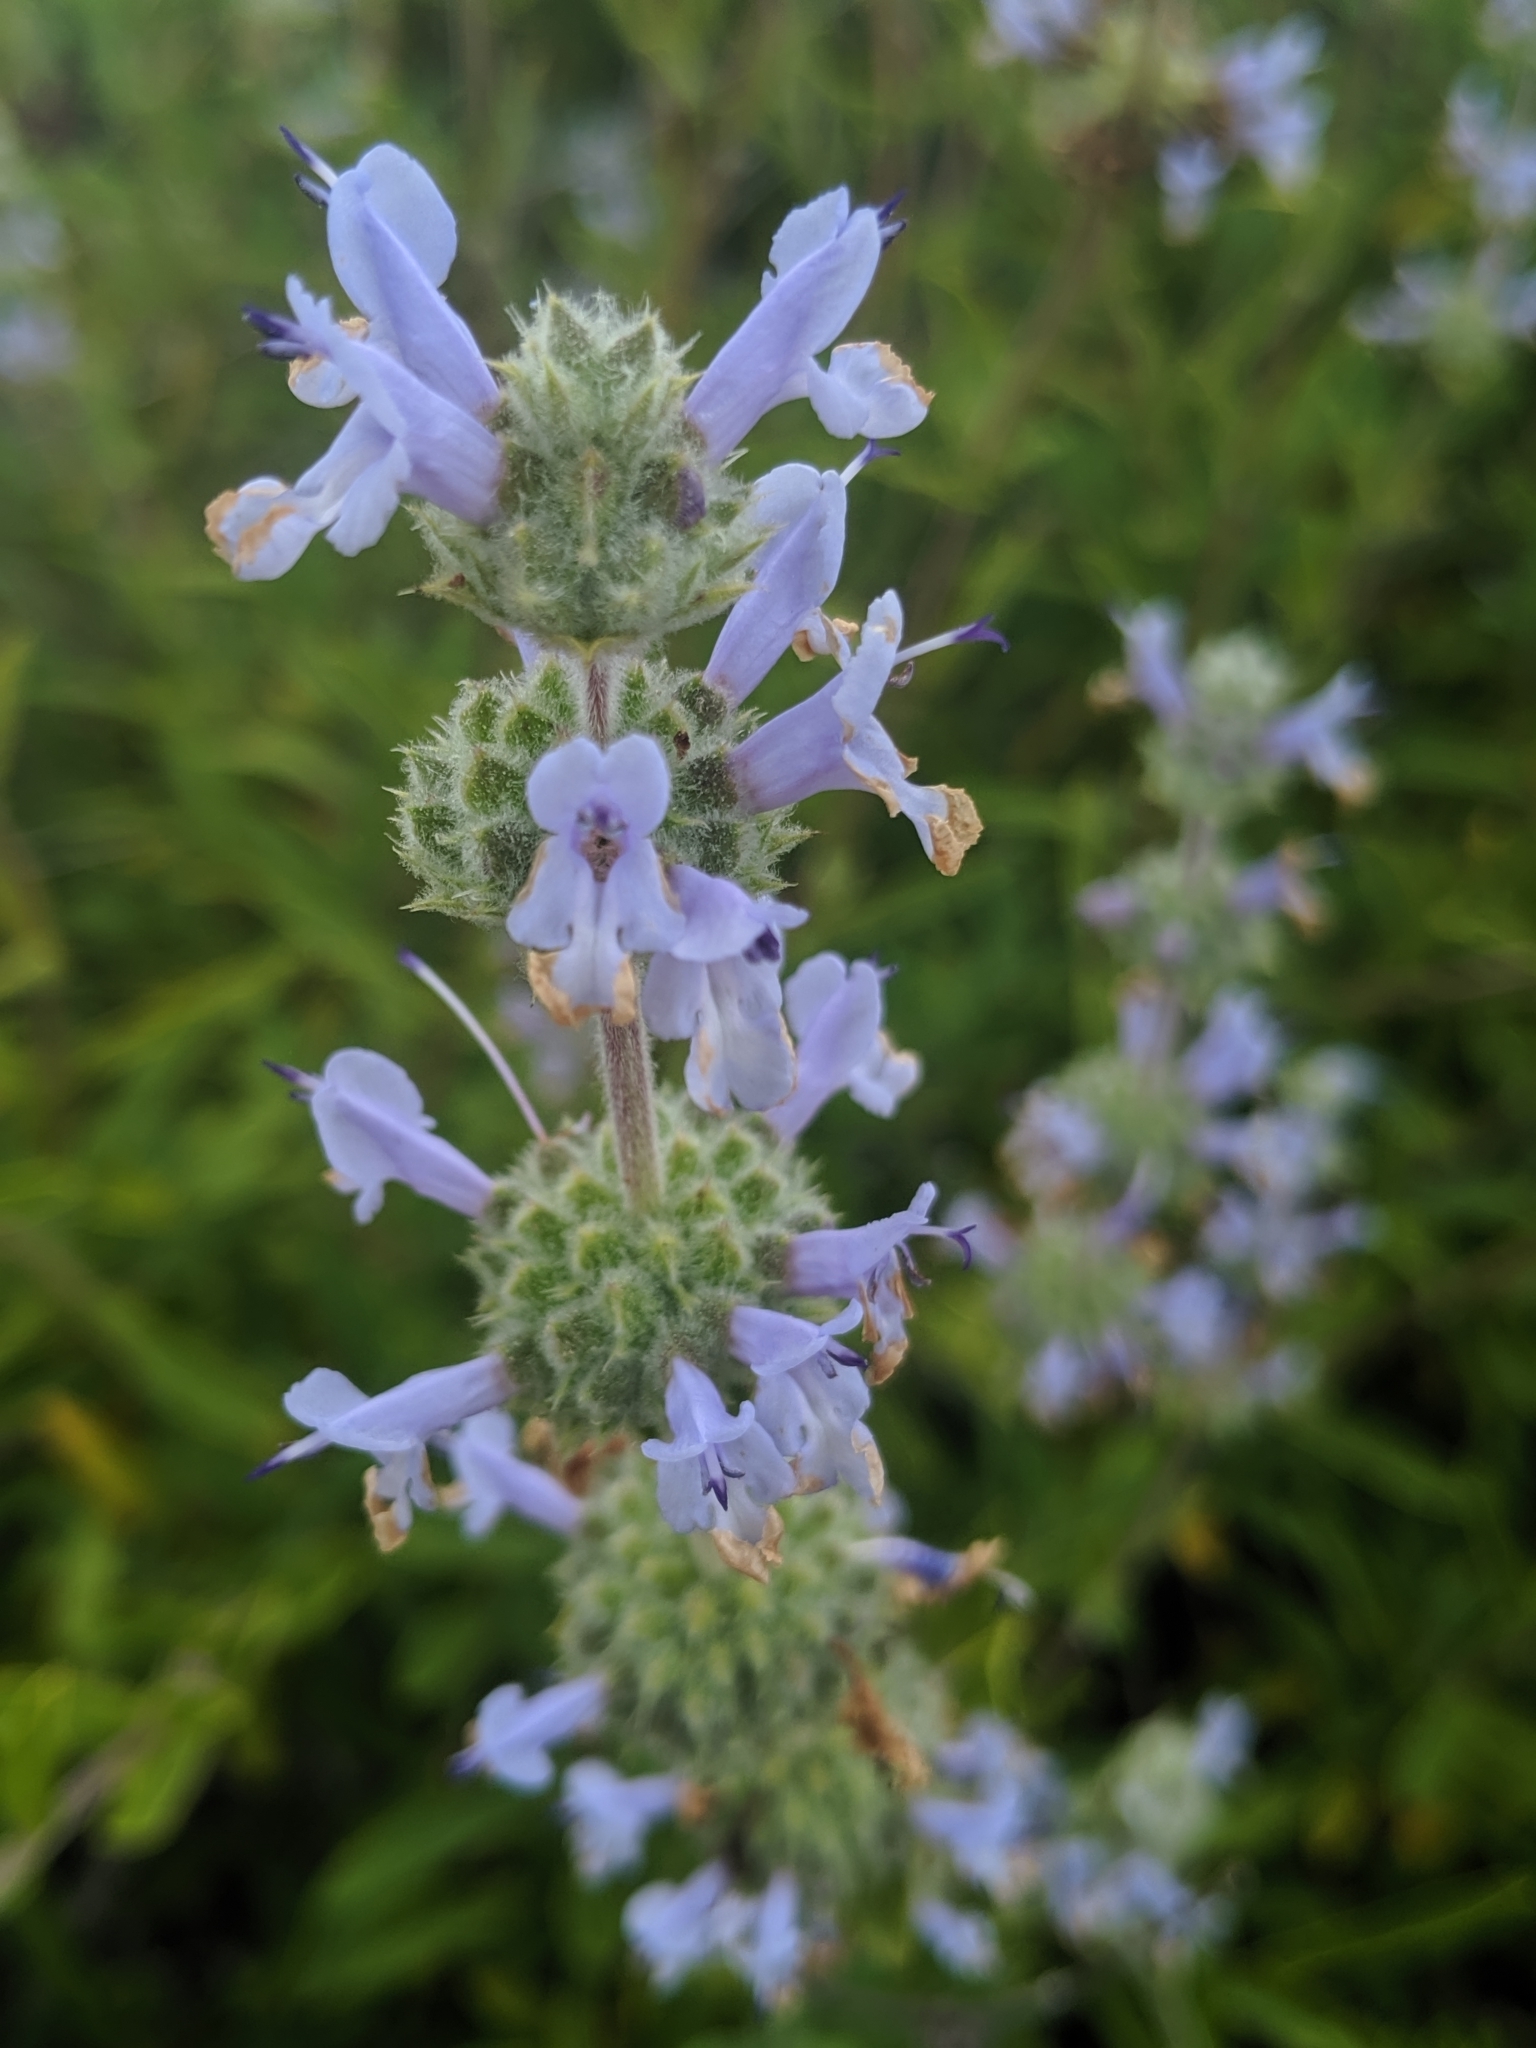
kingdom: Plantae
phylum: Tracheophyta
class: Magnoliopsida
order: Lamiales
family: Lamiaceae
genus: Salvia
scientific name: Salvia mellifera
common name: Black sage
